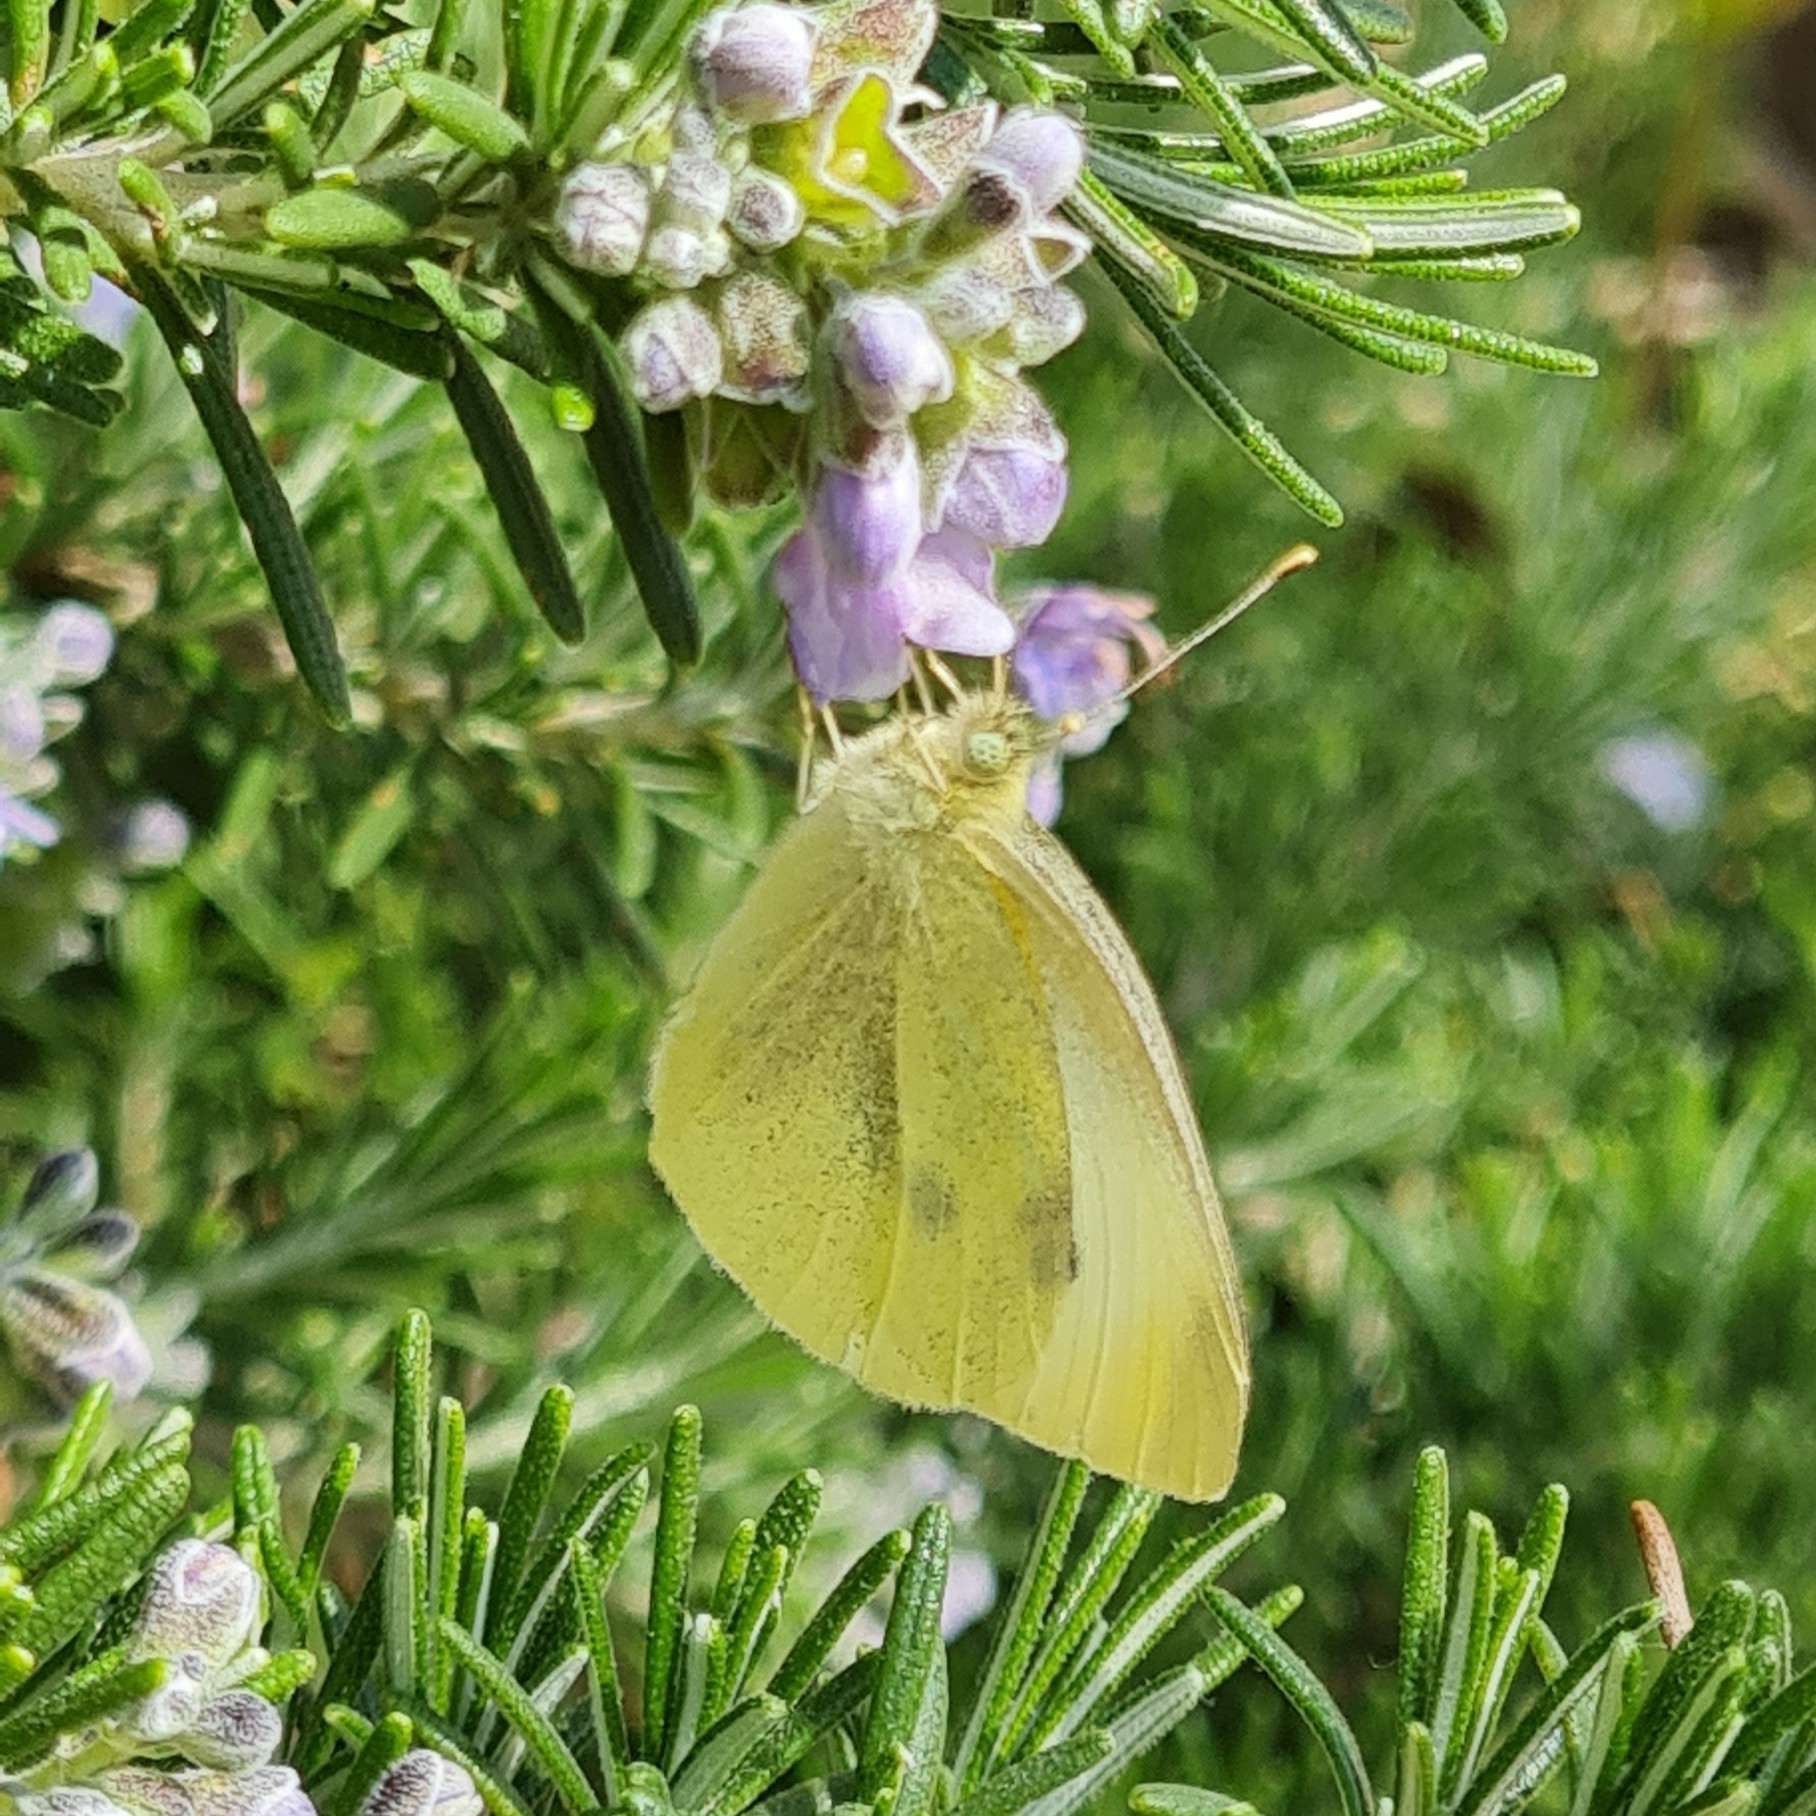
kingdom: Animalia
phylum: Arthropoda
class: Insecta
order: Lepidoptera
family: Pieridae
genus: Pieris
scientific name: Pieris rapae
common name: Small white
